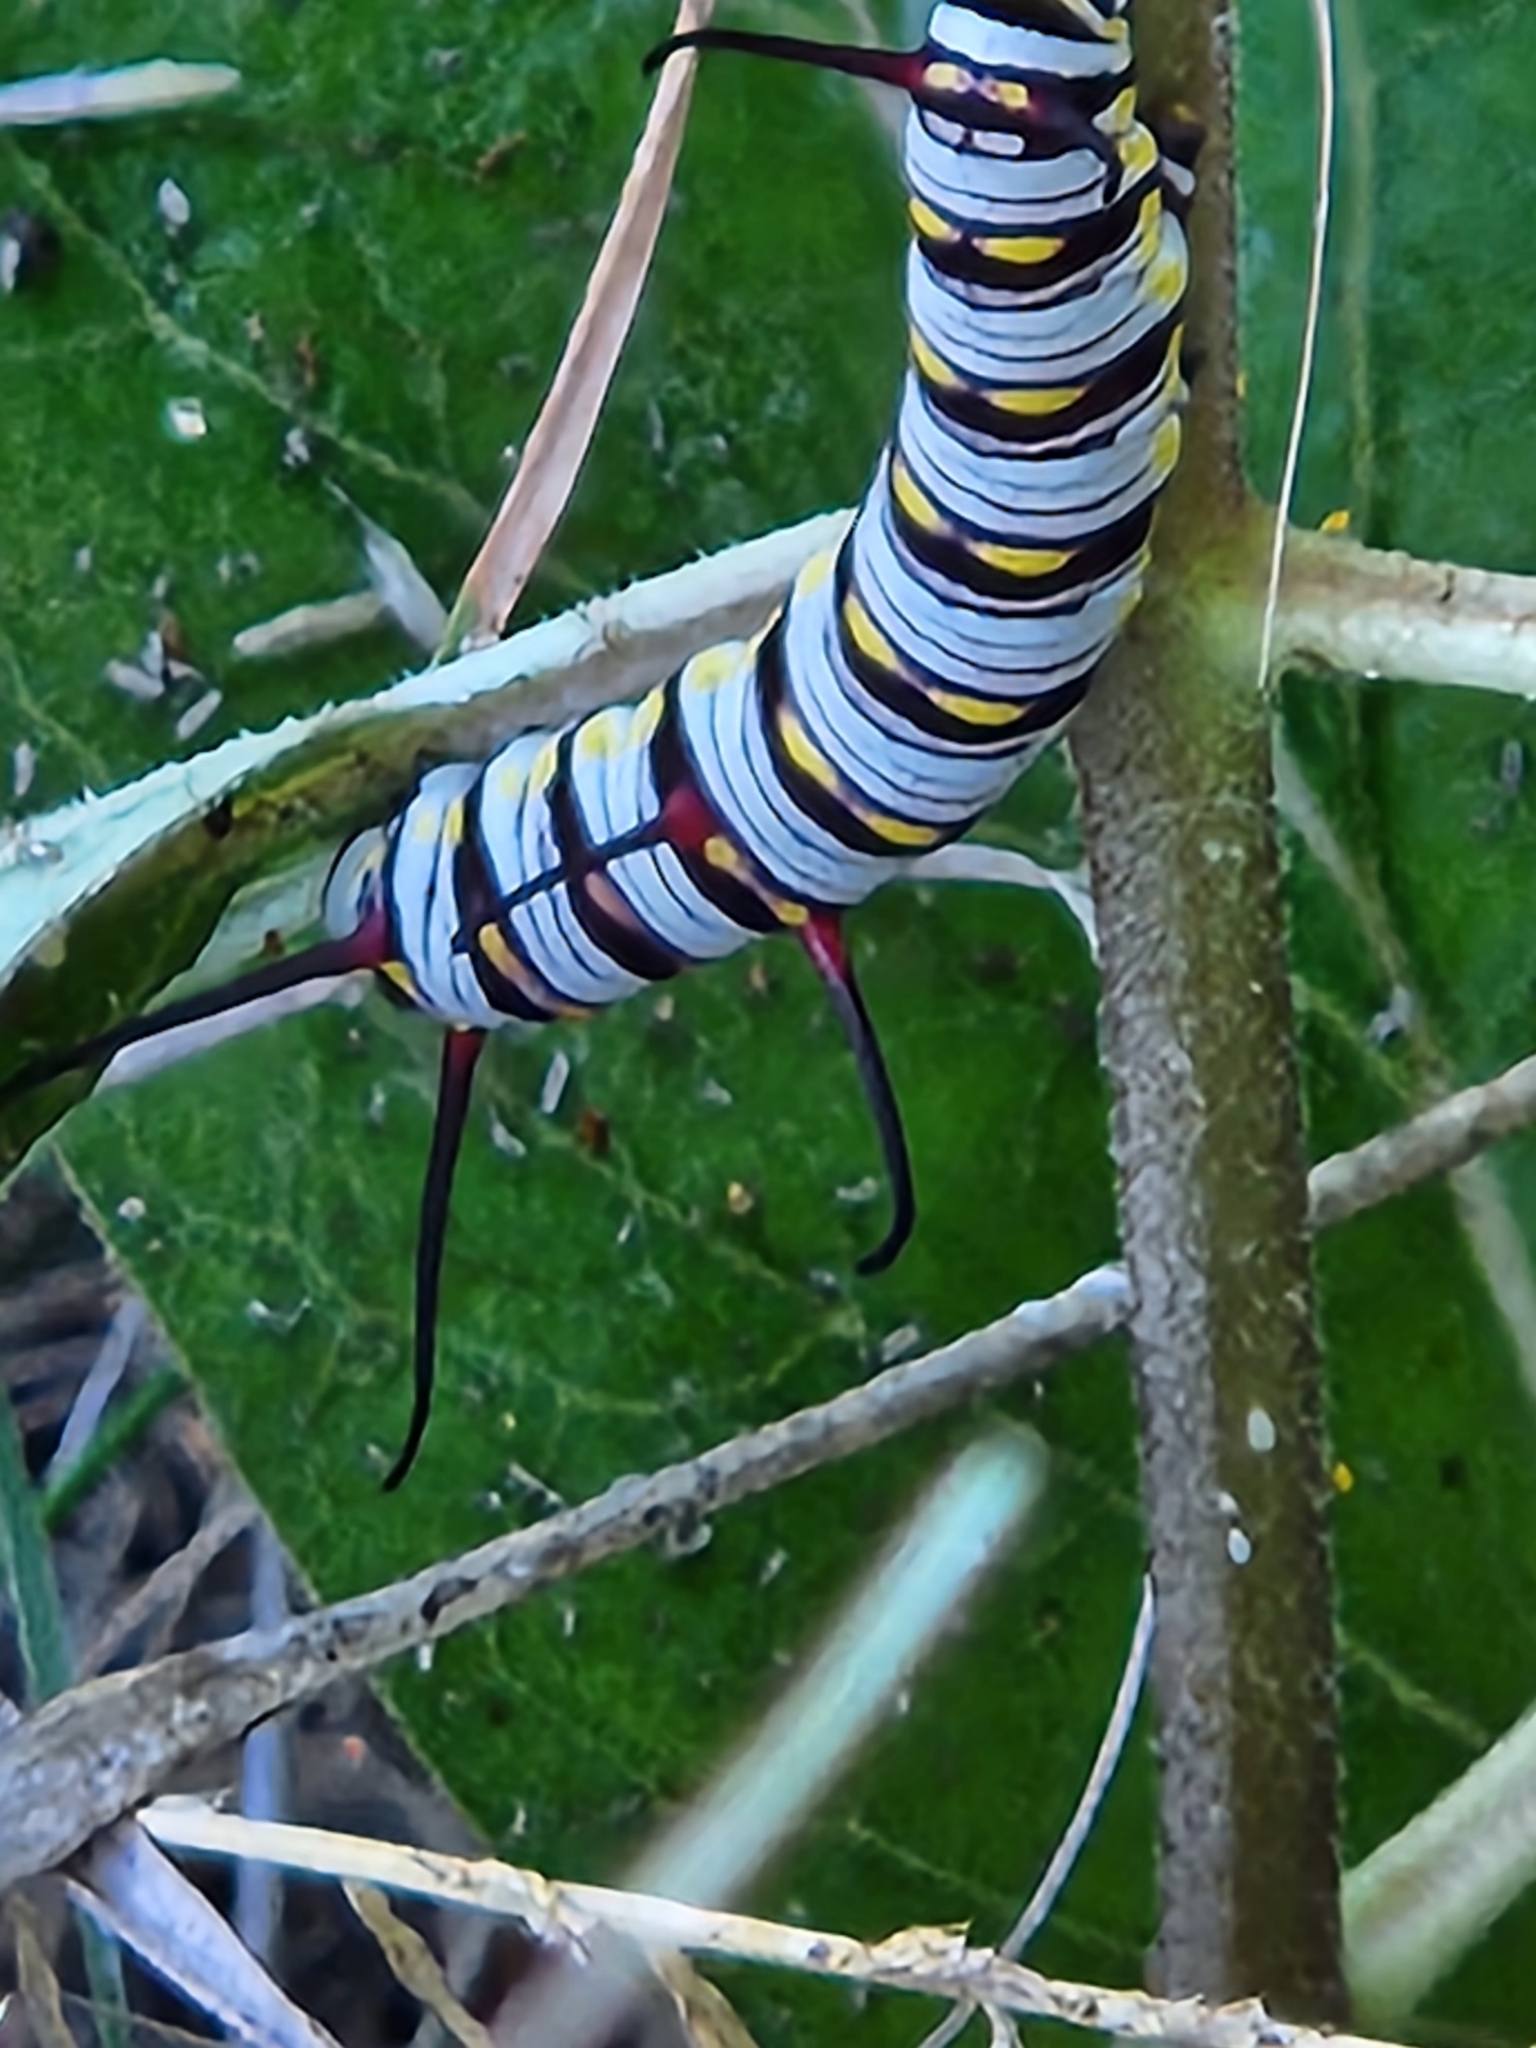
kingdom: Animalia
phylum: Arthropoda
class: Insecta
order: Lepidoptera
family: Nymphalidae
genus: Danaus
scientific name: Danaus gilippus
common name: Queen
